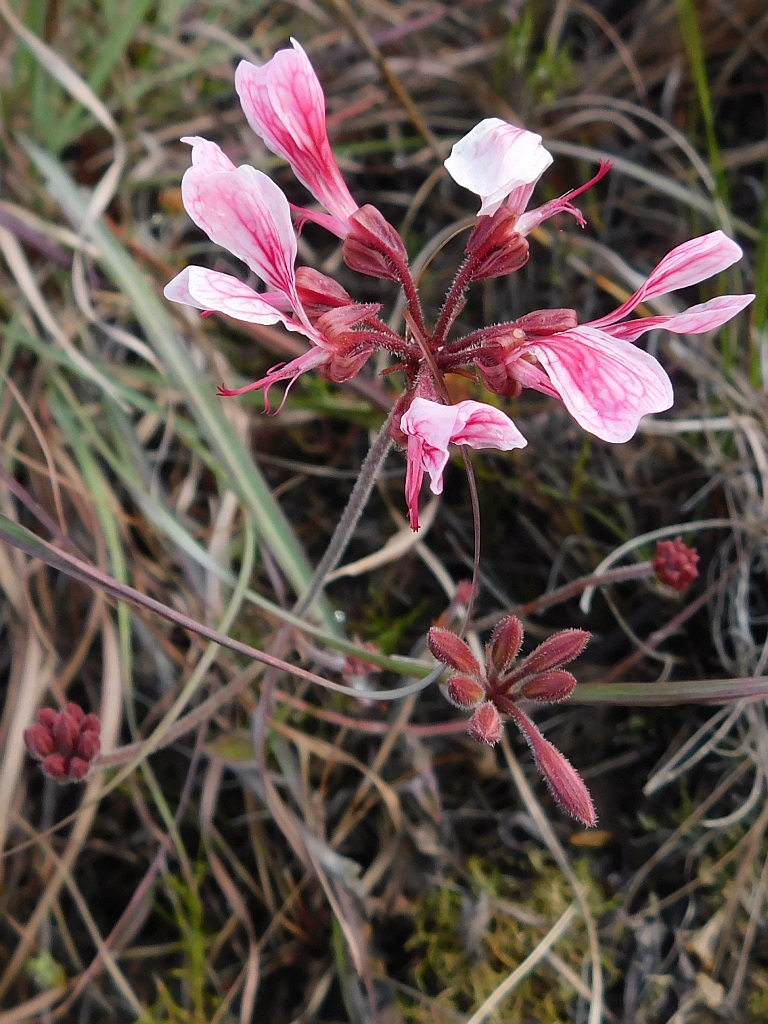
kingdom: Plantae
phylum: Tracheophyta
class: Magnoliopsida
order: Geraniales
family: Geraniaceae
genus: Pelargonium
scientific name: Pelargonium dipetalum
